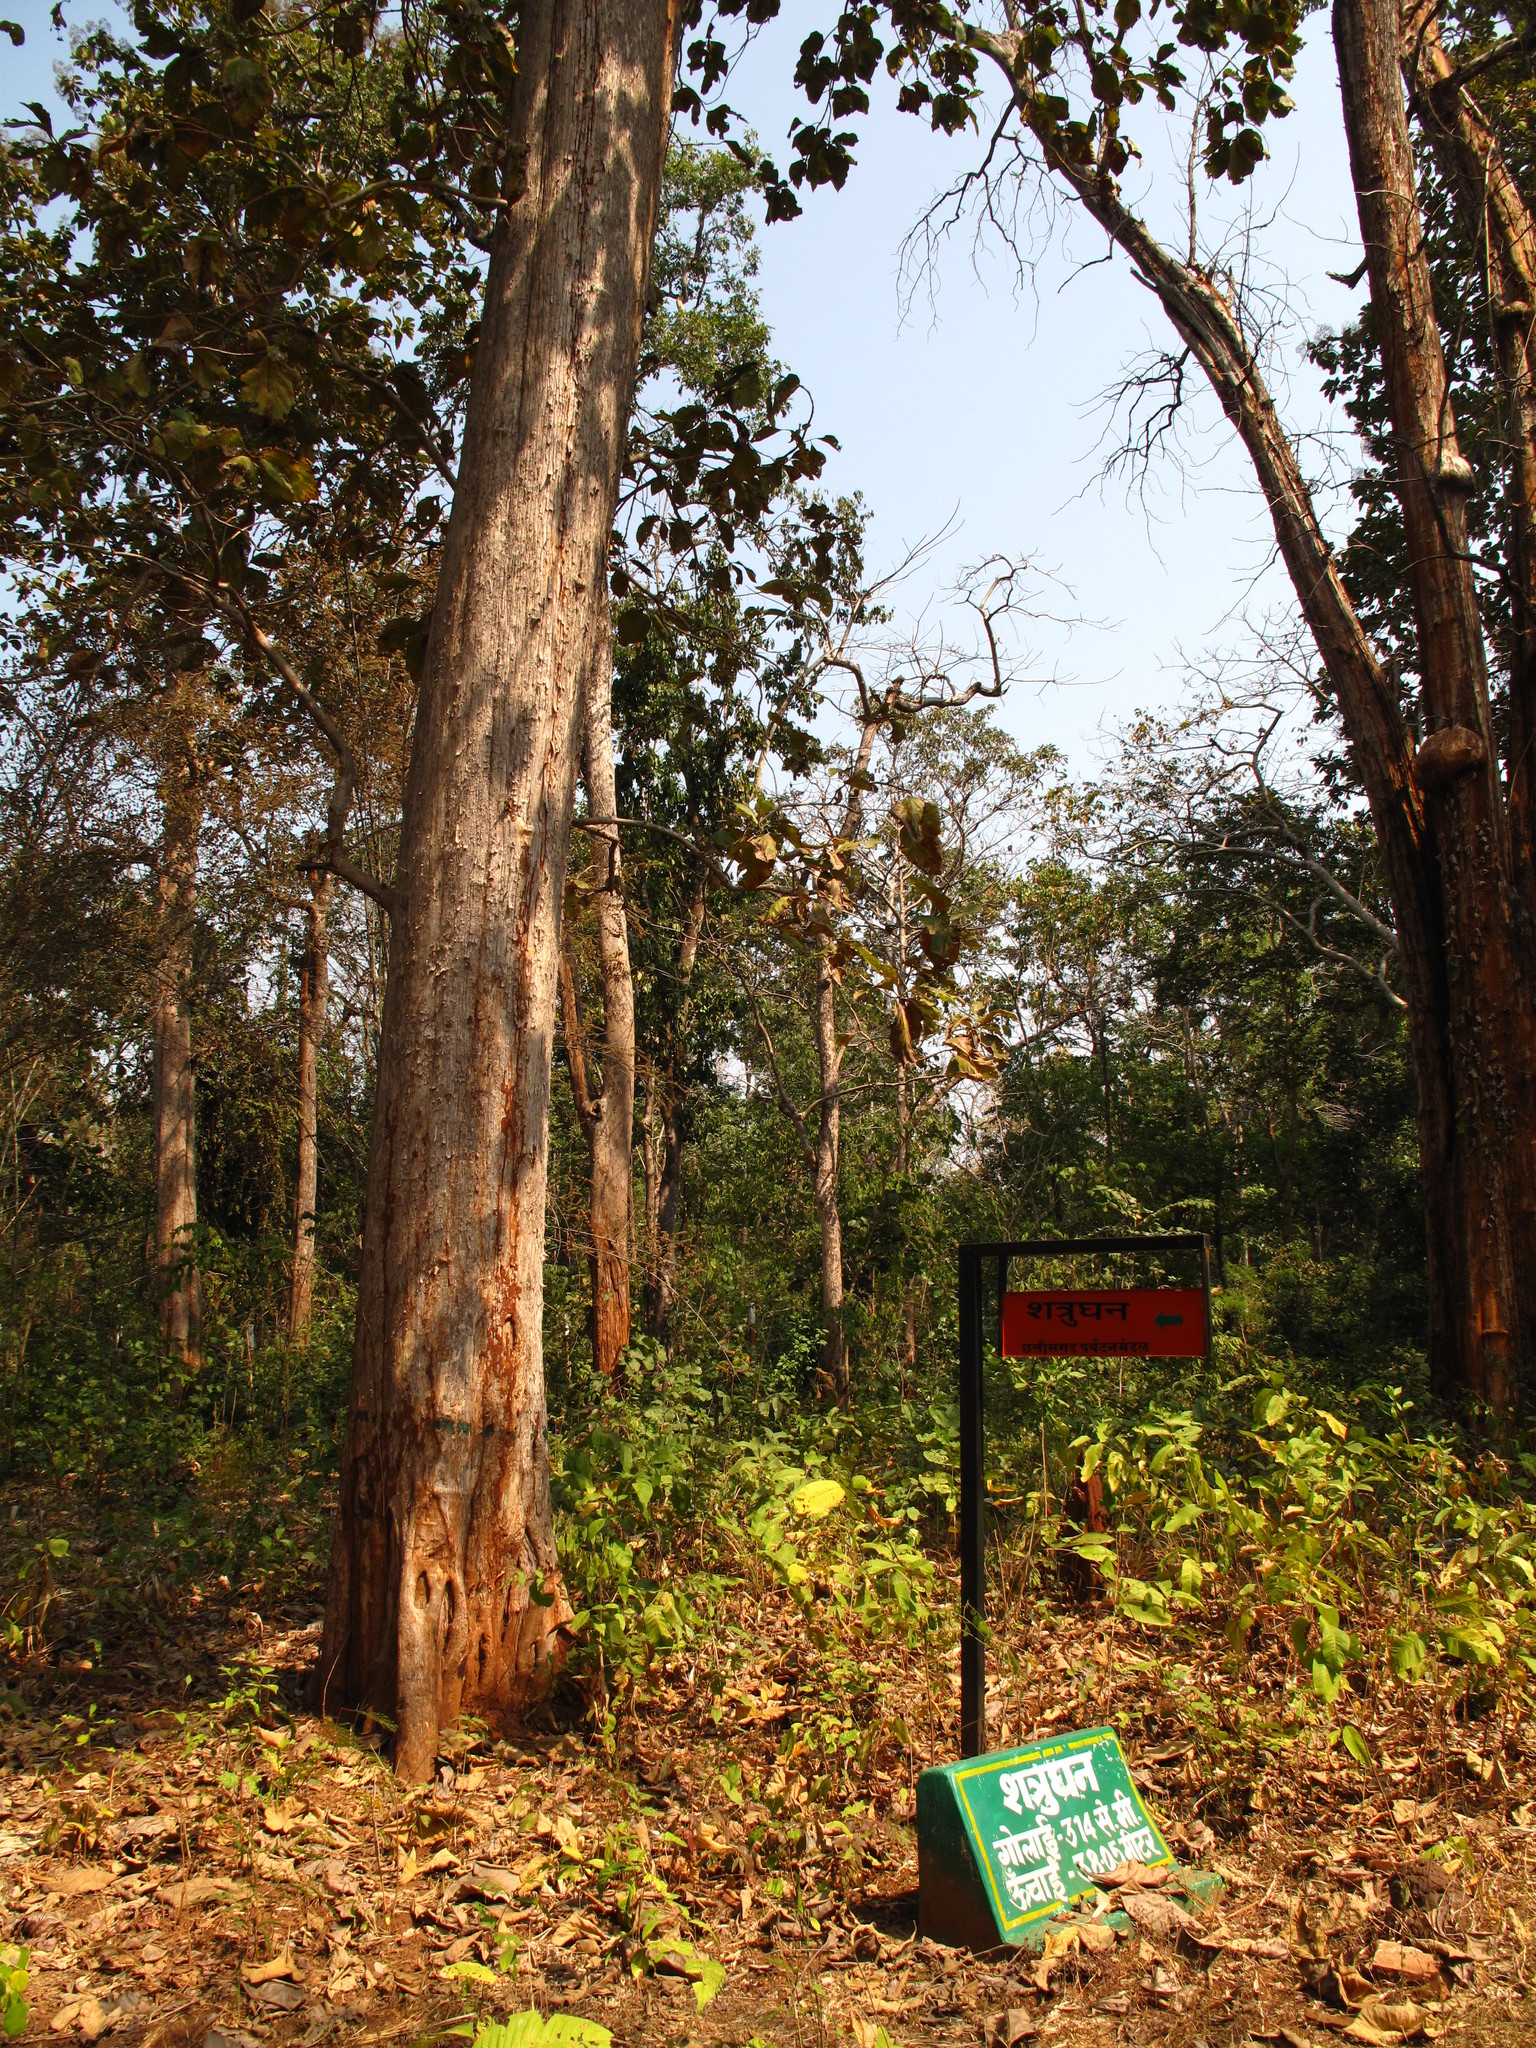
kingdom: Plantae
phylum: Tracheophyta
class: Magnoliopsida
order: Lamiales
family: Lamiaceae
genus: Tectona
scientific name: Tectona grandis
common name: Teak
